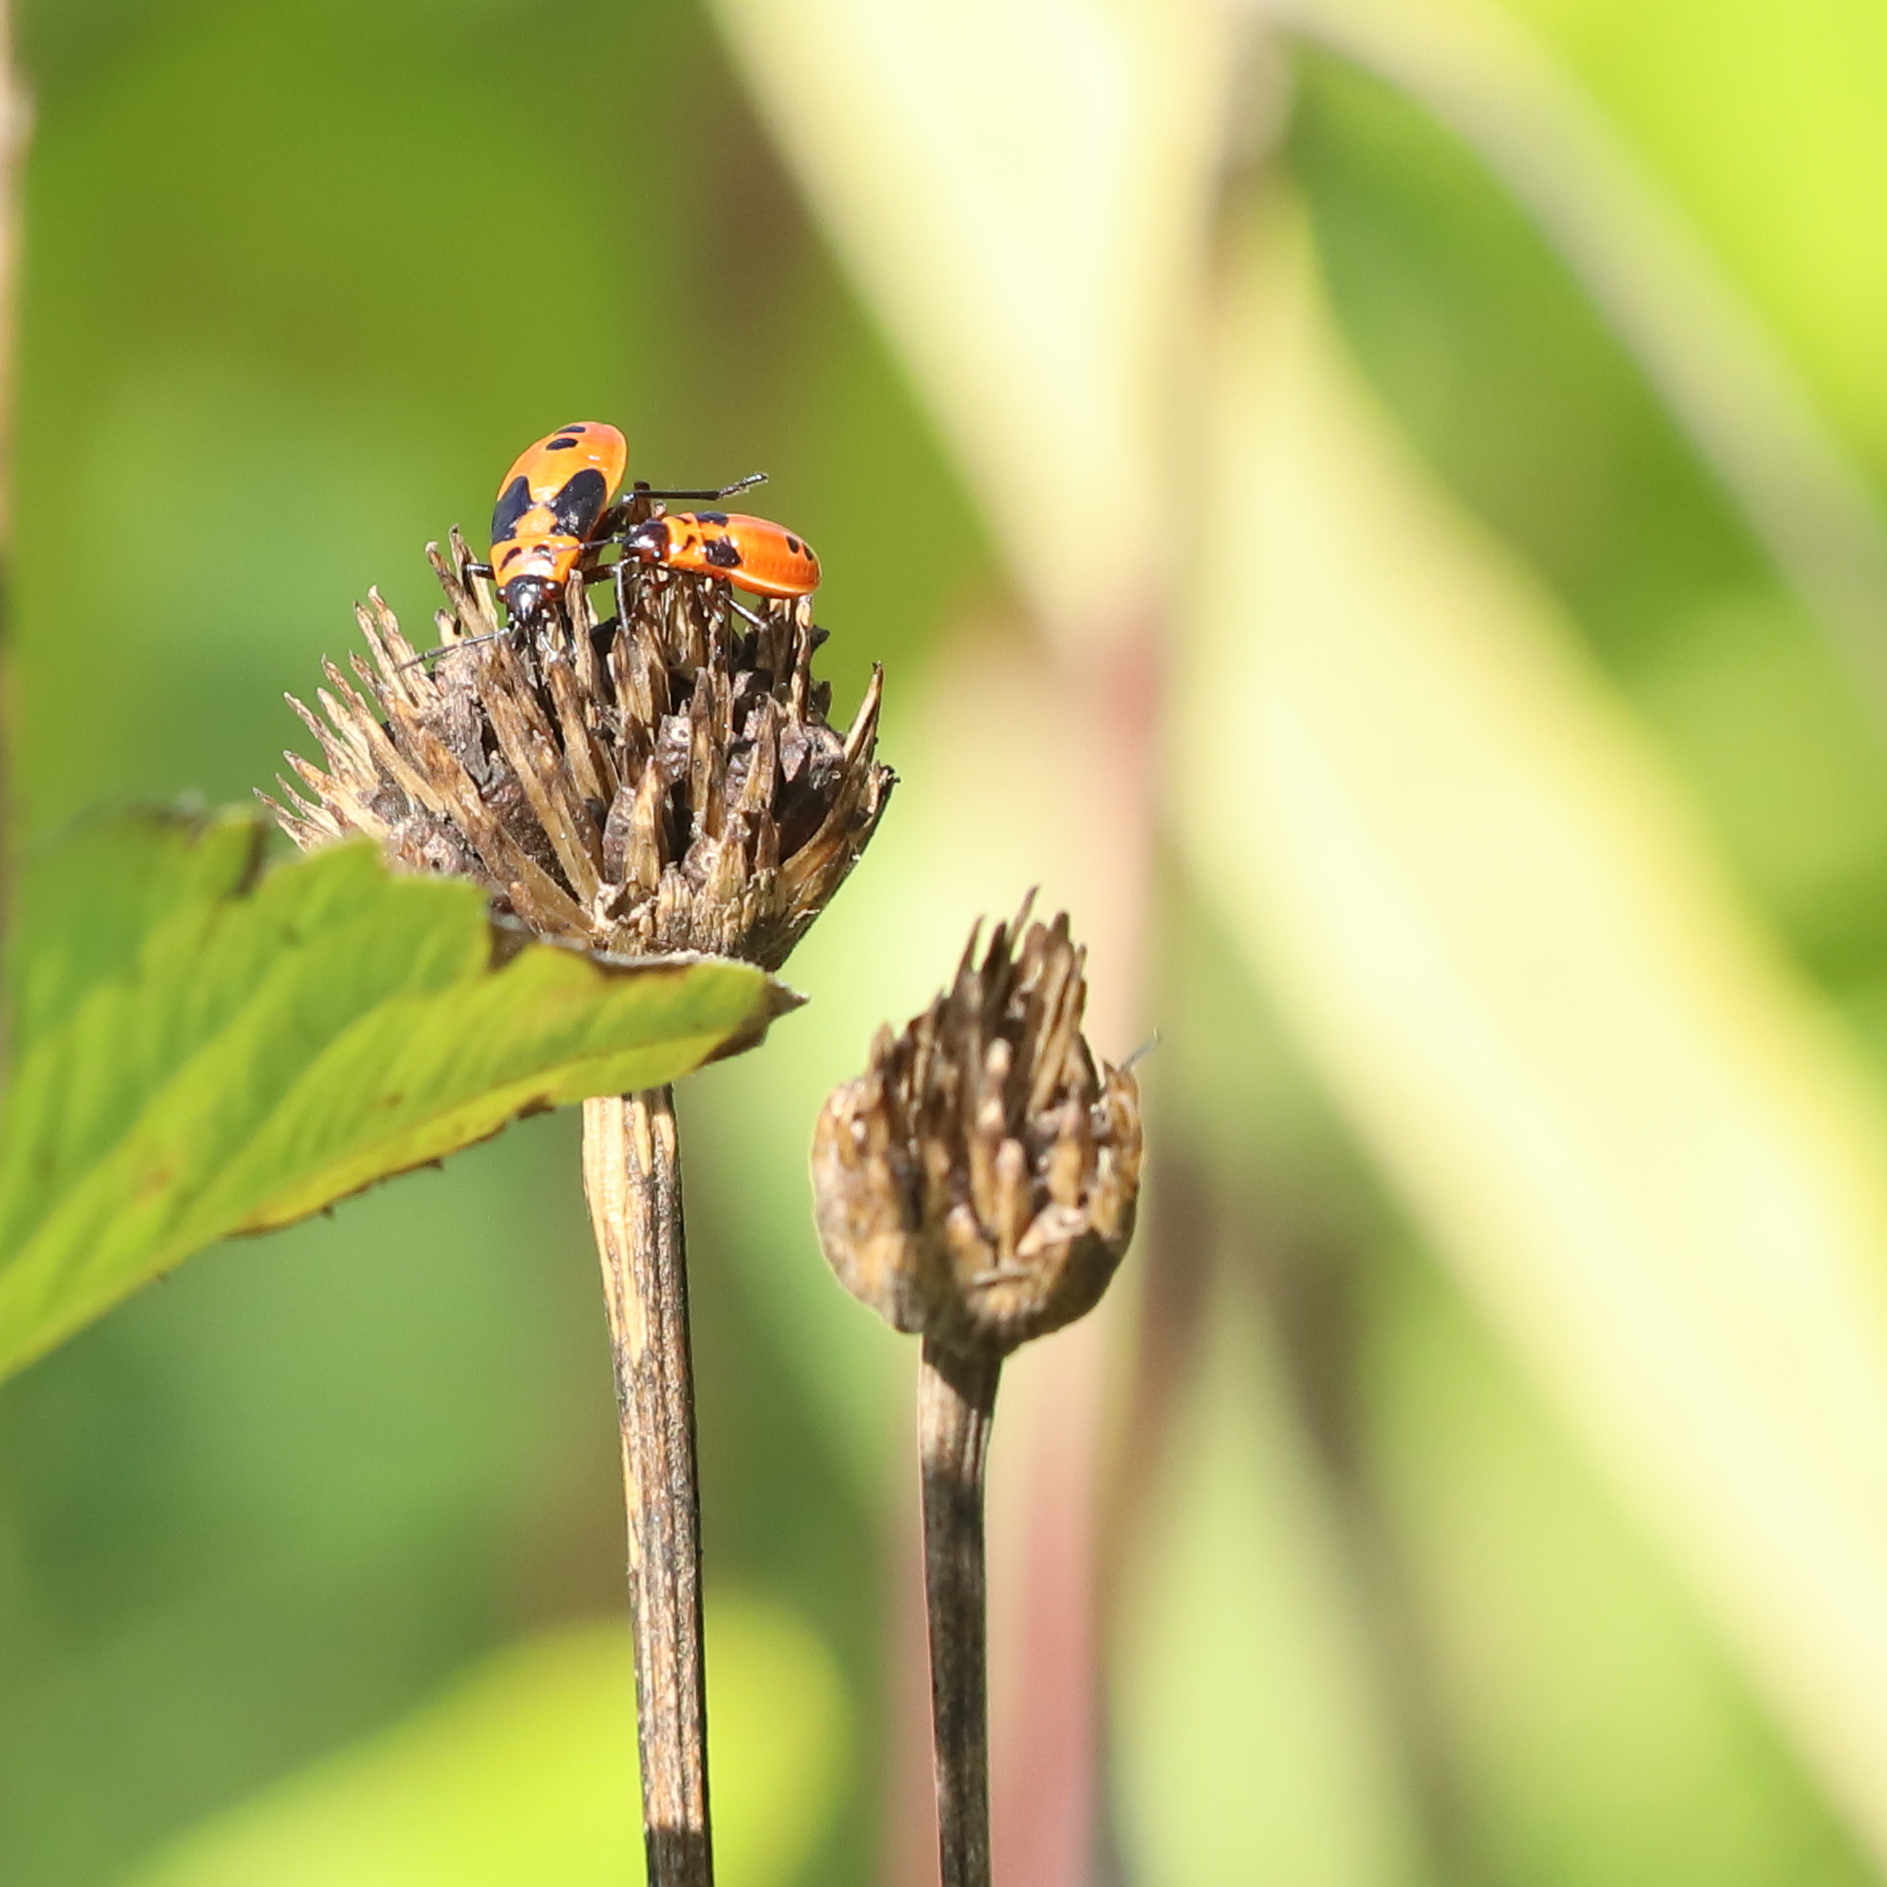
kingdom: Animalia
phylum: Arthropoda
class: Insecta
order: Hemiptera
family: Lygaeidae
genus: Lygaeus
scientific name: Lygaeus turcicus
